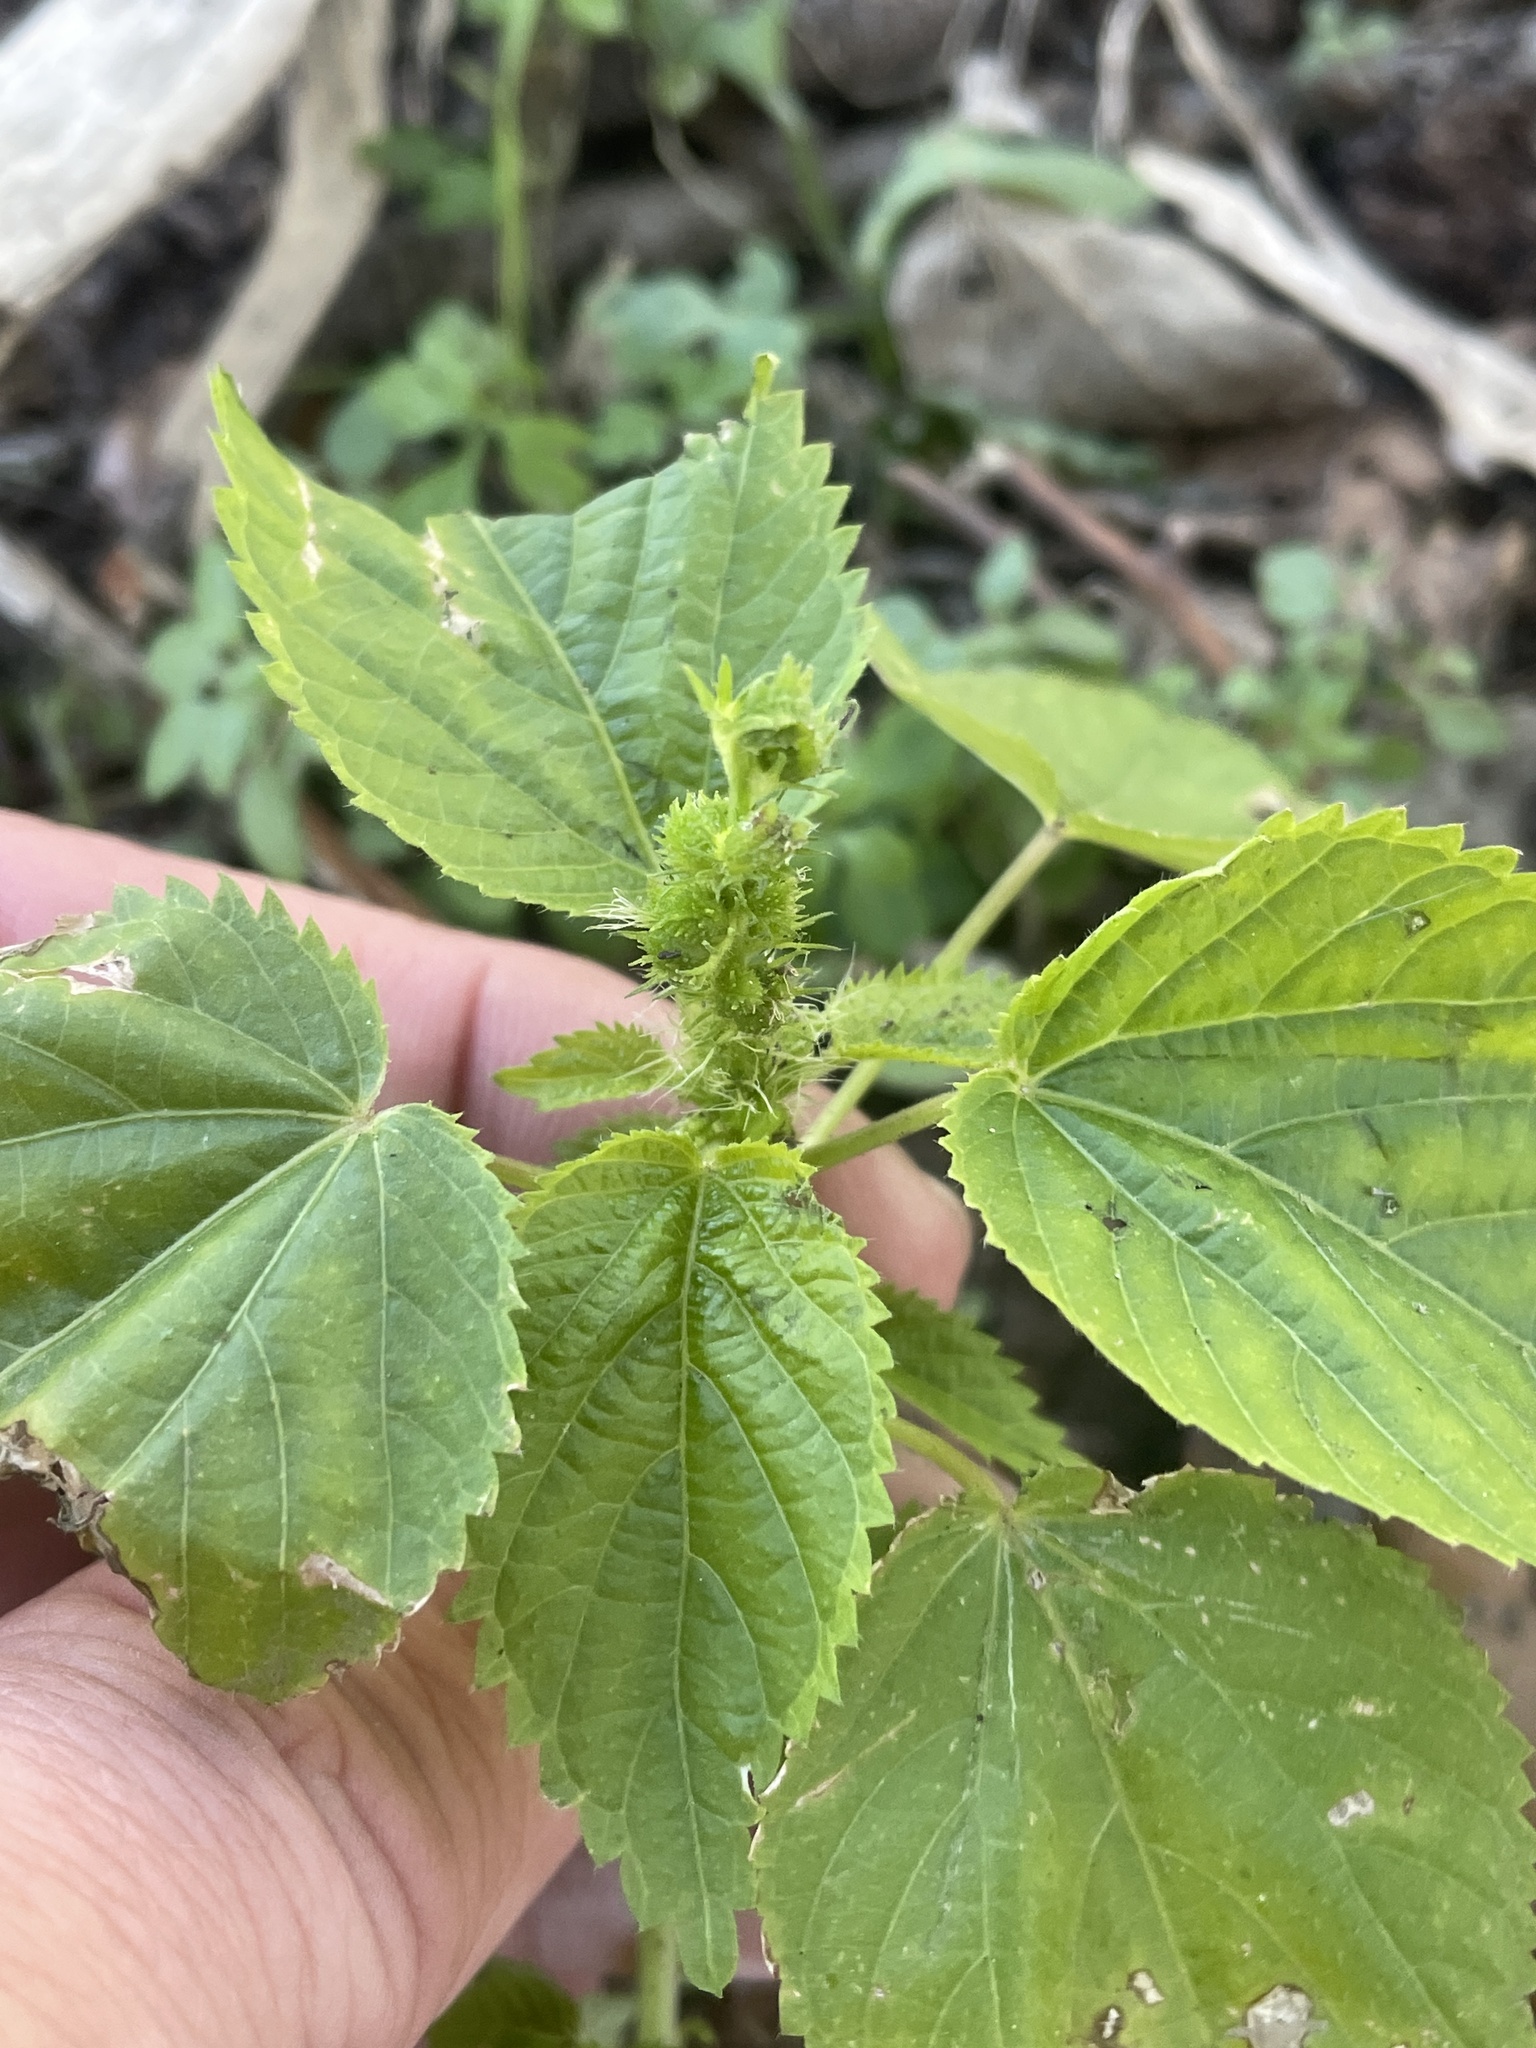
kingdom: Plantae
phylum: Tracheophyta
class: Magnoliopsida
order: Malpighiales
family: Euphorbiaceae
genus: Acalypha
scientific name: Acalypha ostryifolia
